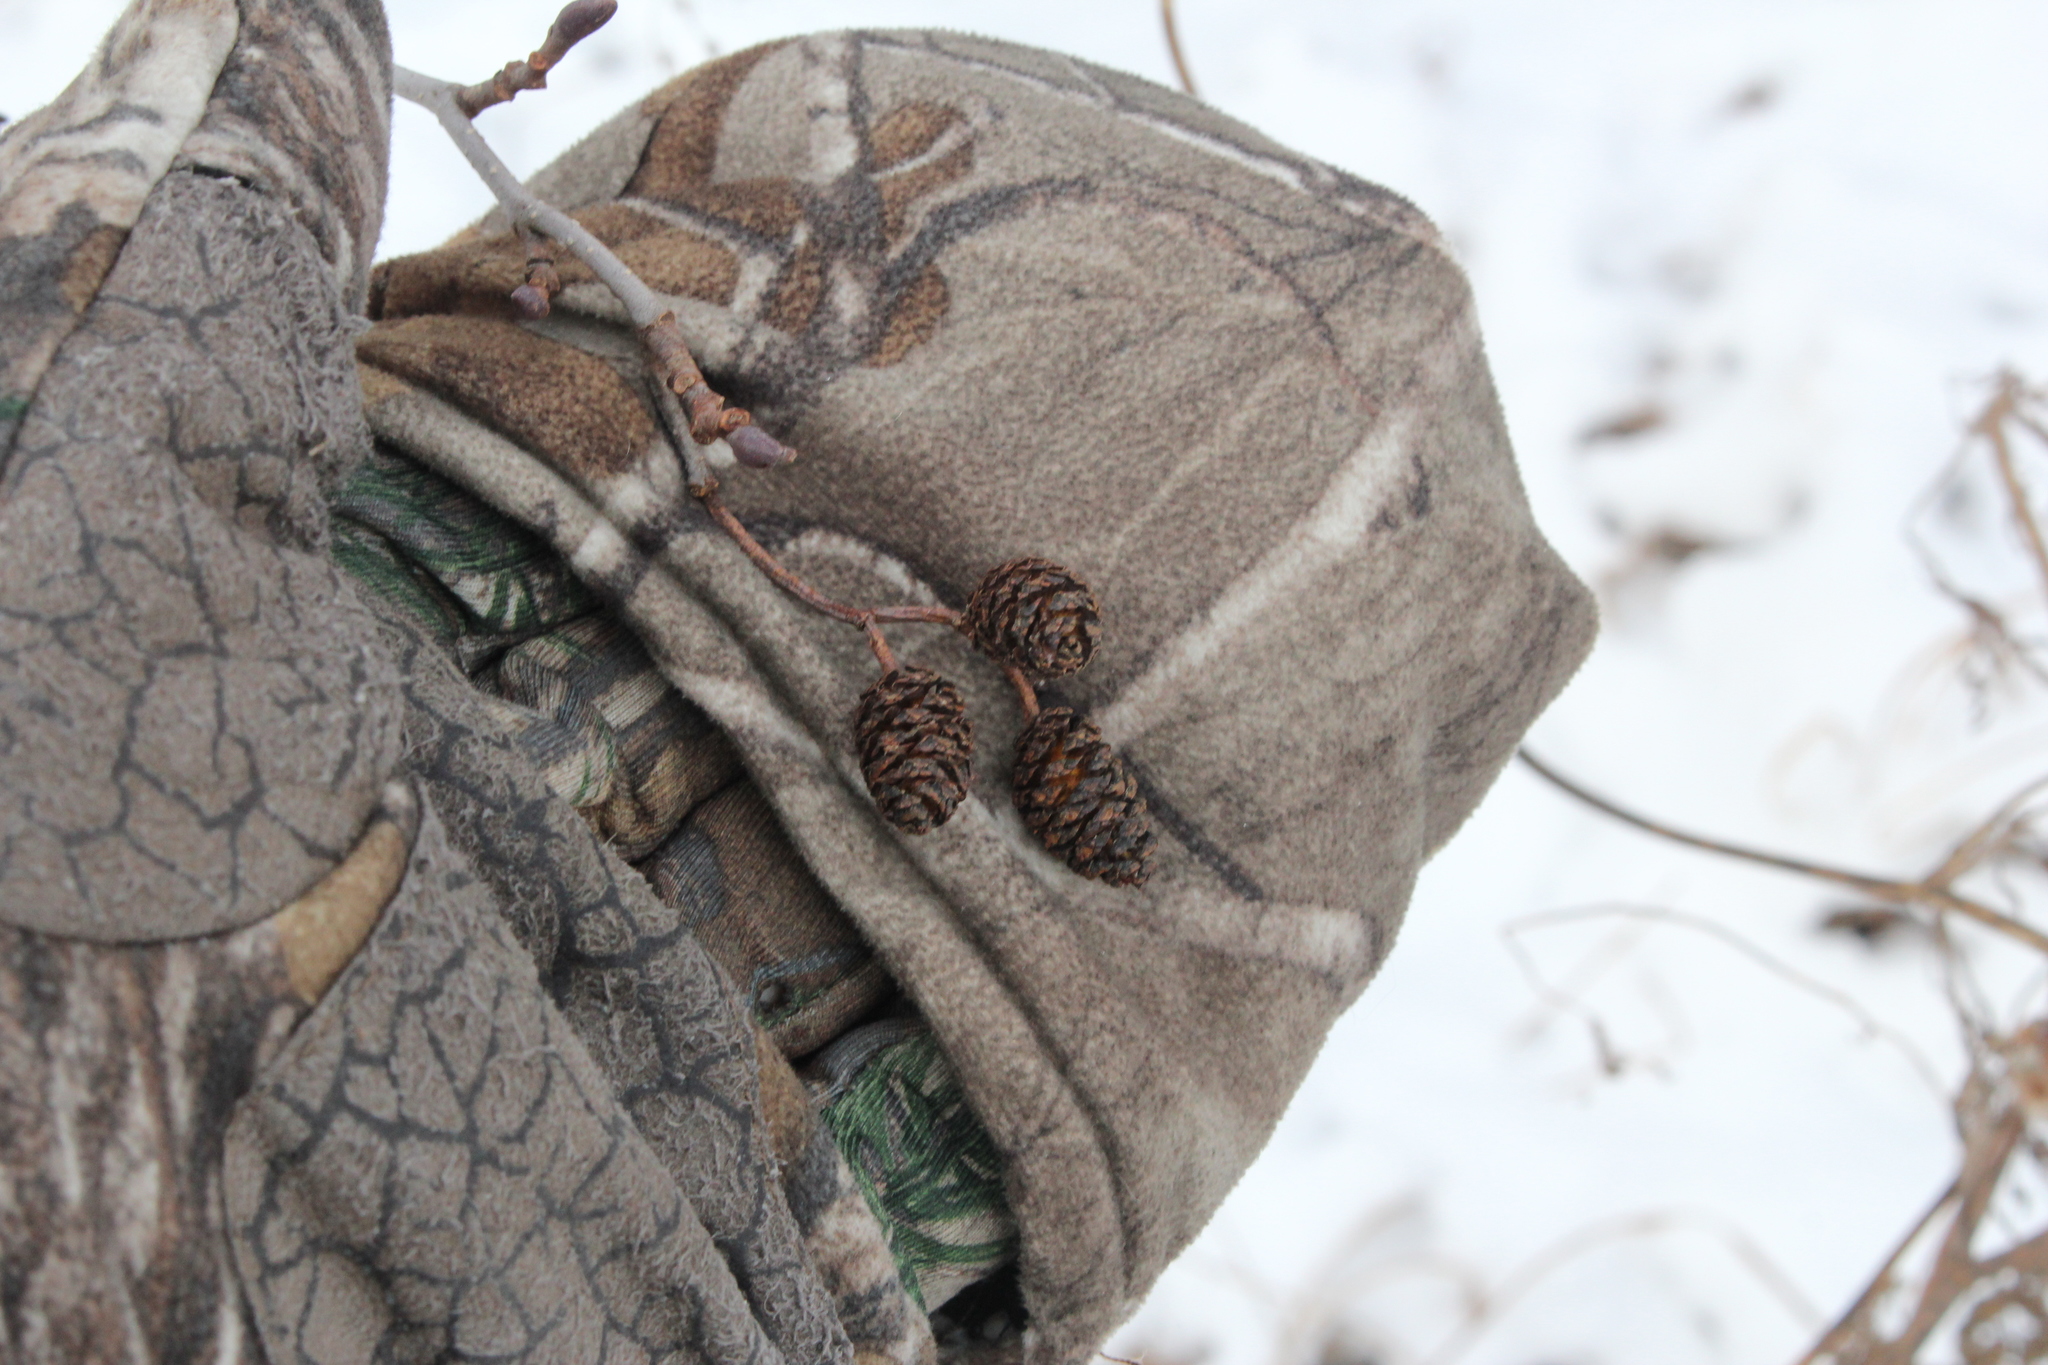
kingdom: Plantae
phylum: Tracheophyta
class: Magnoliopsida
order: Fagales
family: Betulaceae
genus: Alnus
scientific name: Alnus glutinosa
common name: Black alder
